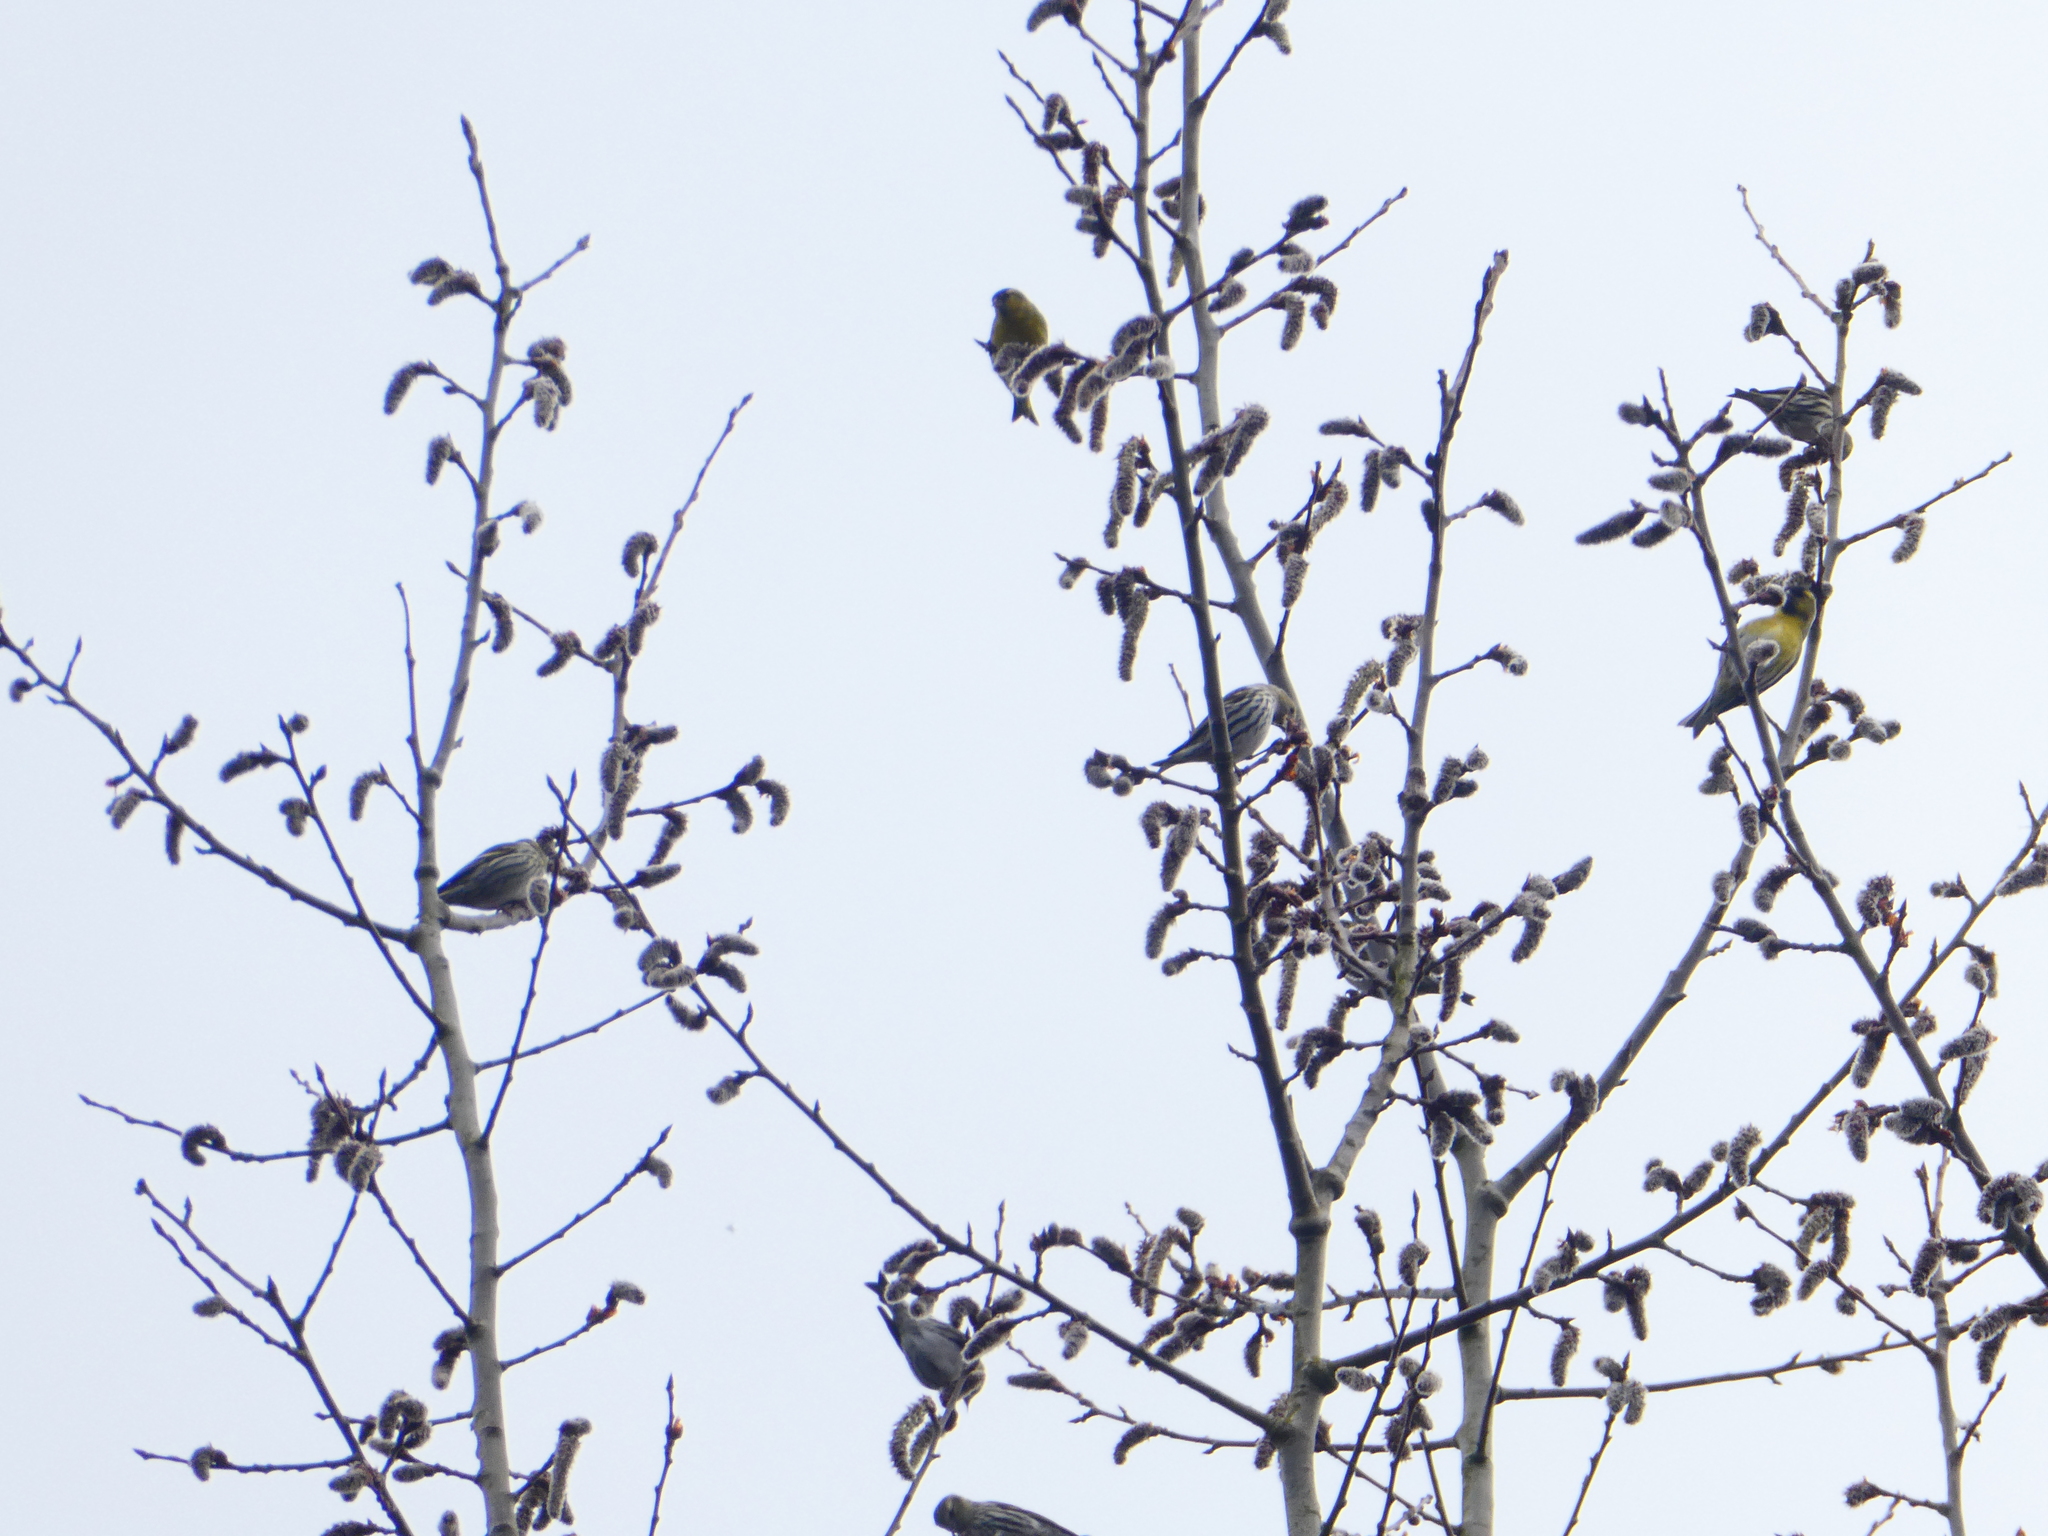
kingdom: Animalia
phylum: Chordata
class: Aves
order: Passeriformes
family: Fringillidae
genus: Spinus
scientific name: Spinus spinus
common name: Eurasian siskin
